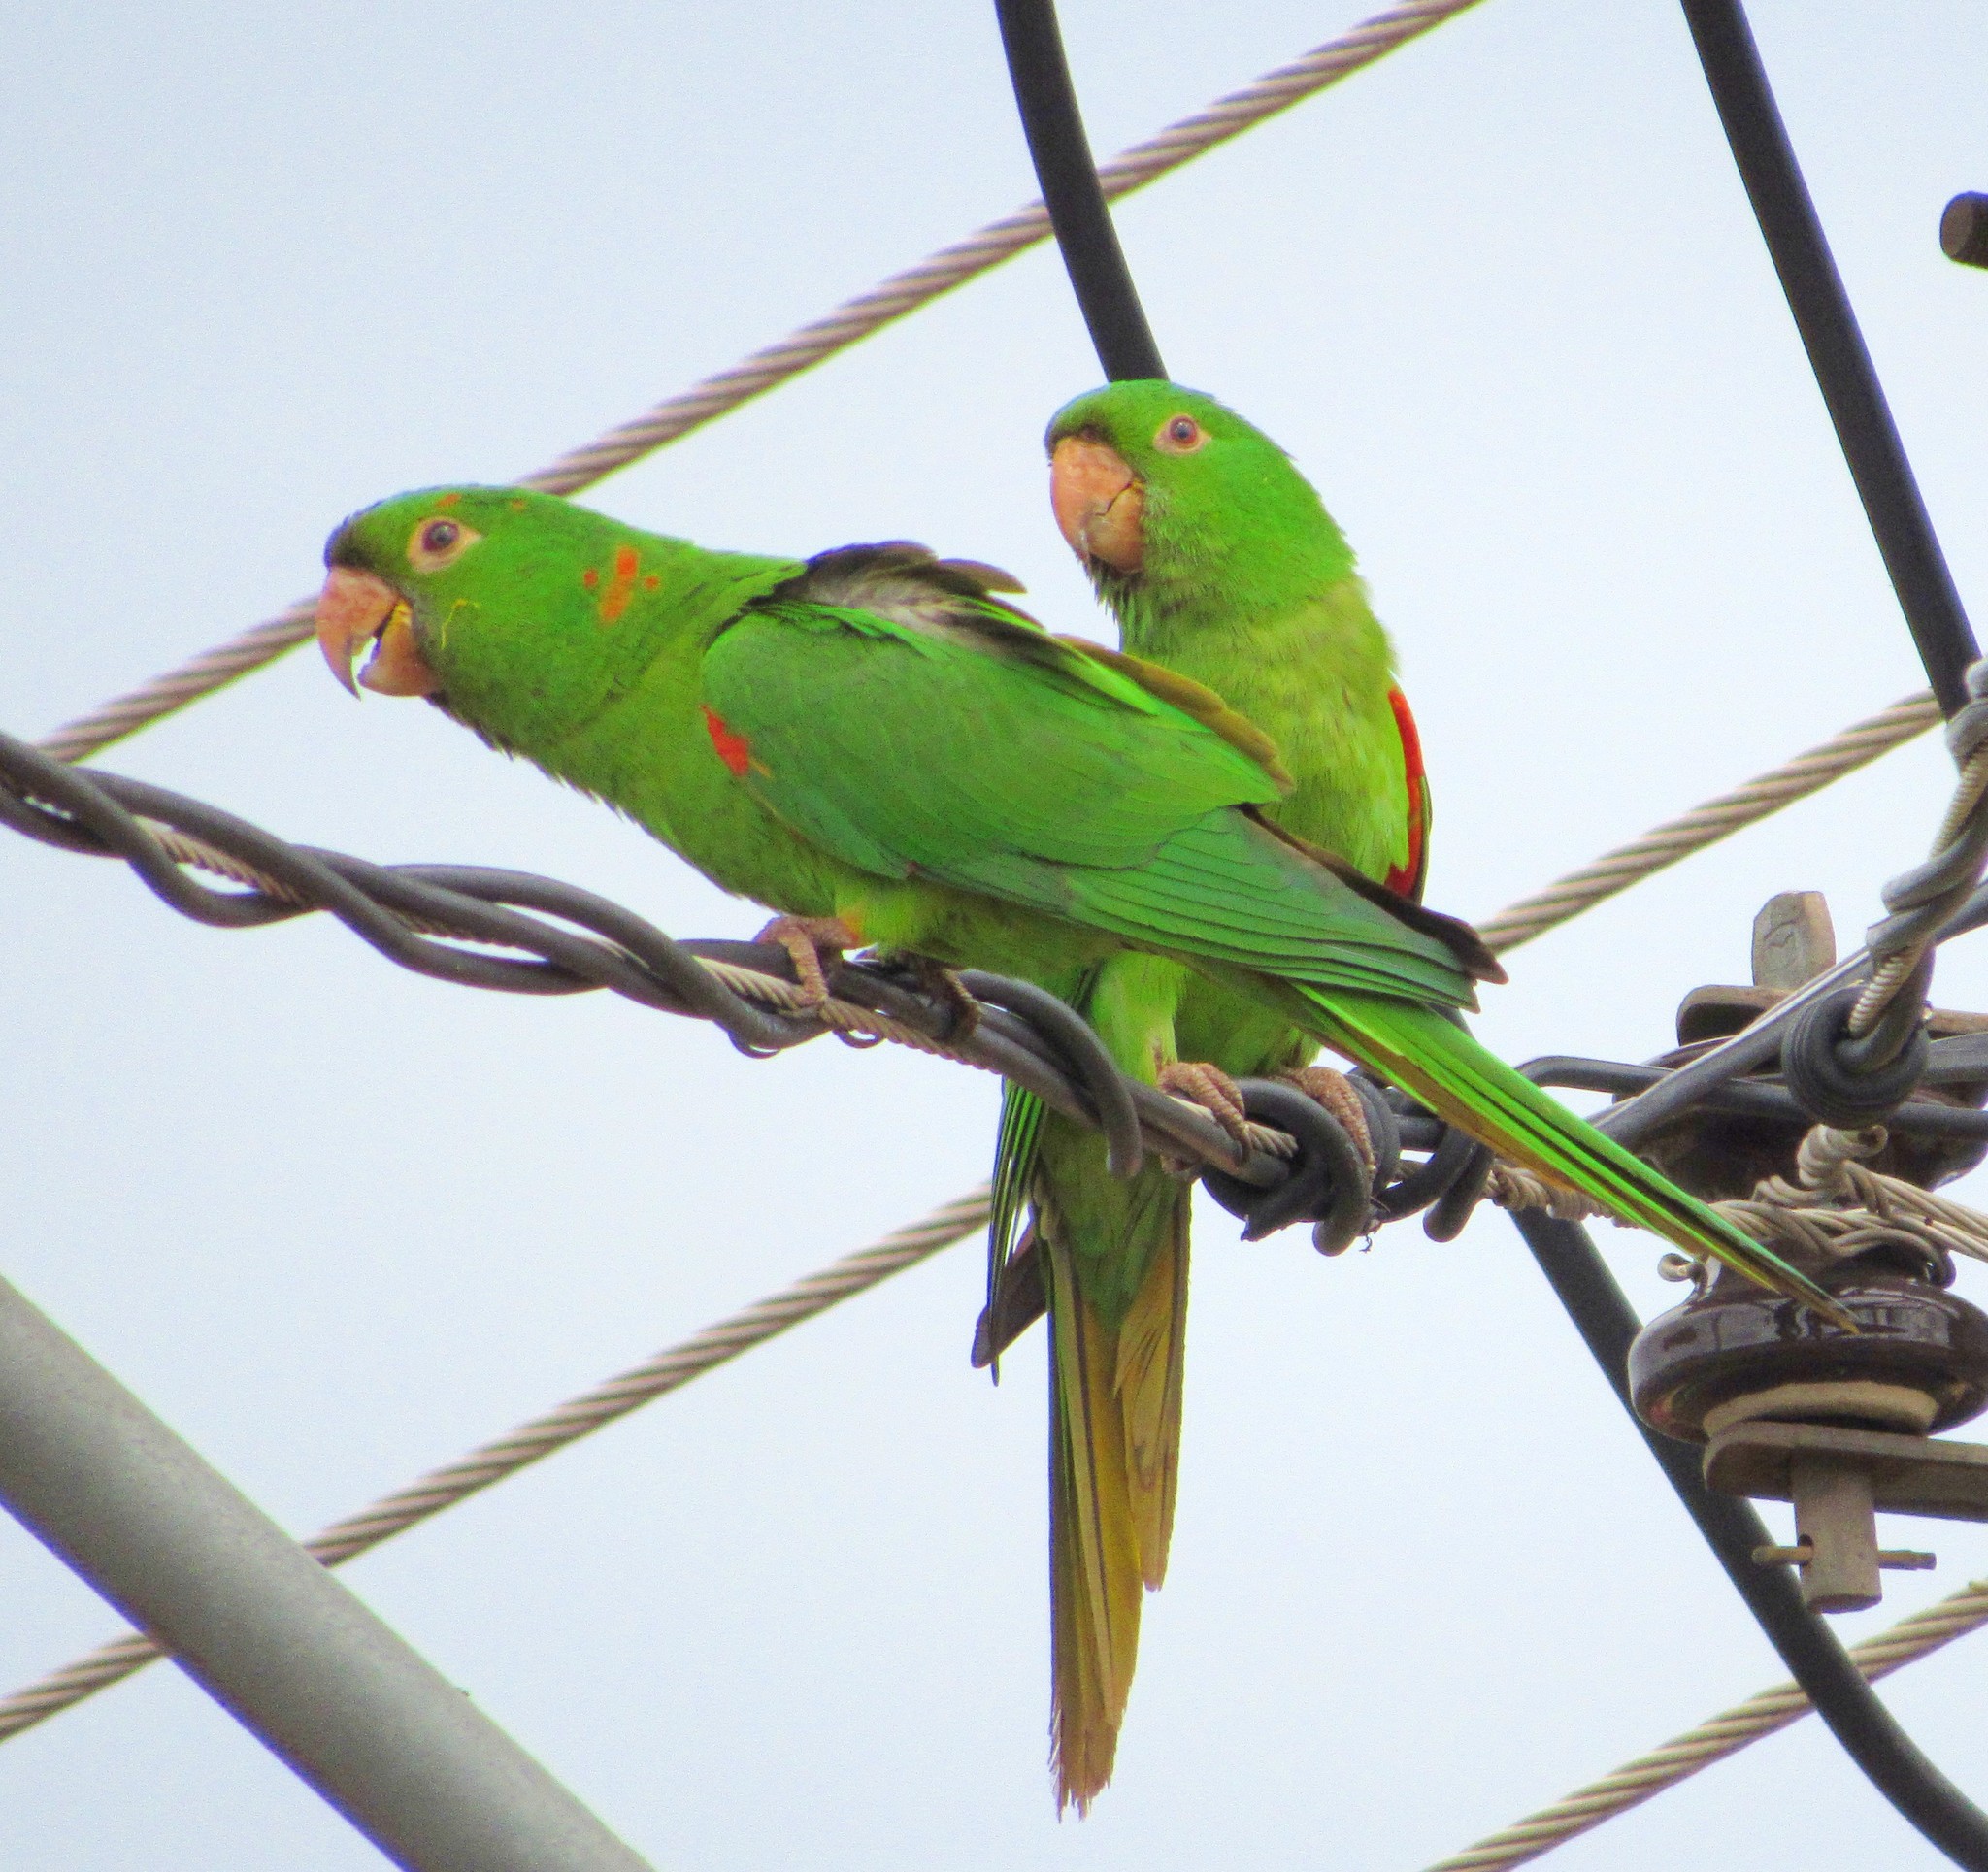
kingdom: Animalia
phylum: Chordata
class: Aves
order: Psittaciformes
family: Psittacidae
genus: Aratinga
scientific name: Aratinga leucophthalma
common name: White-eyed parakeet
